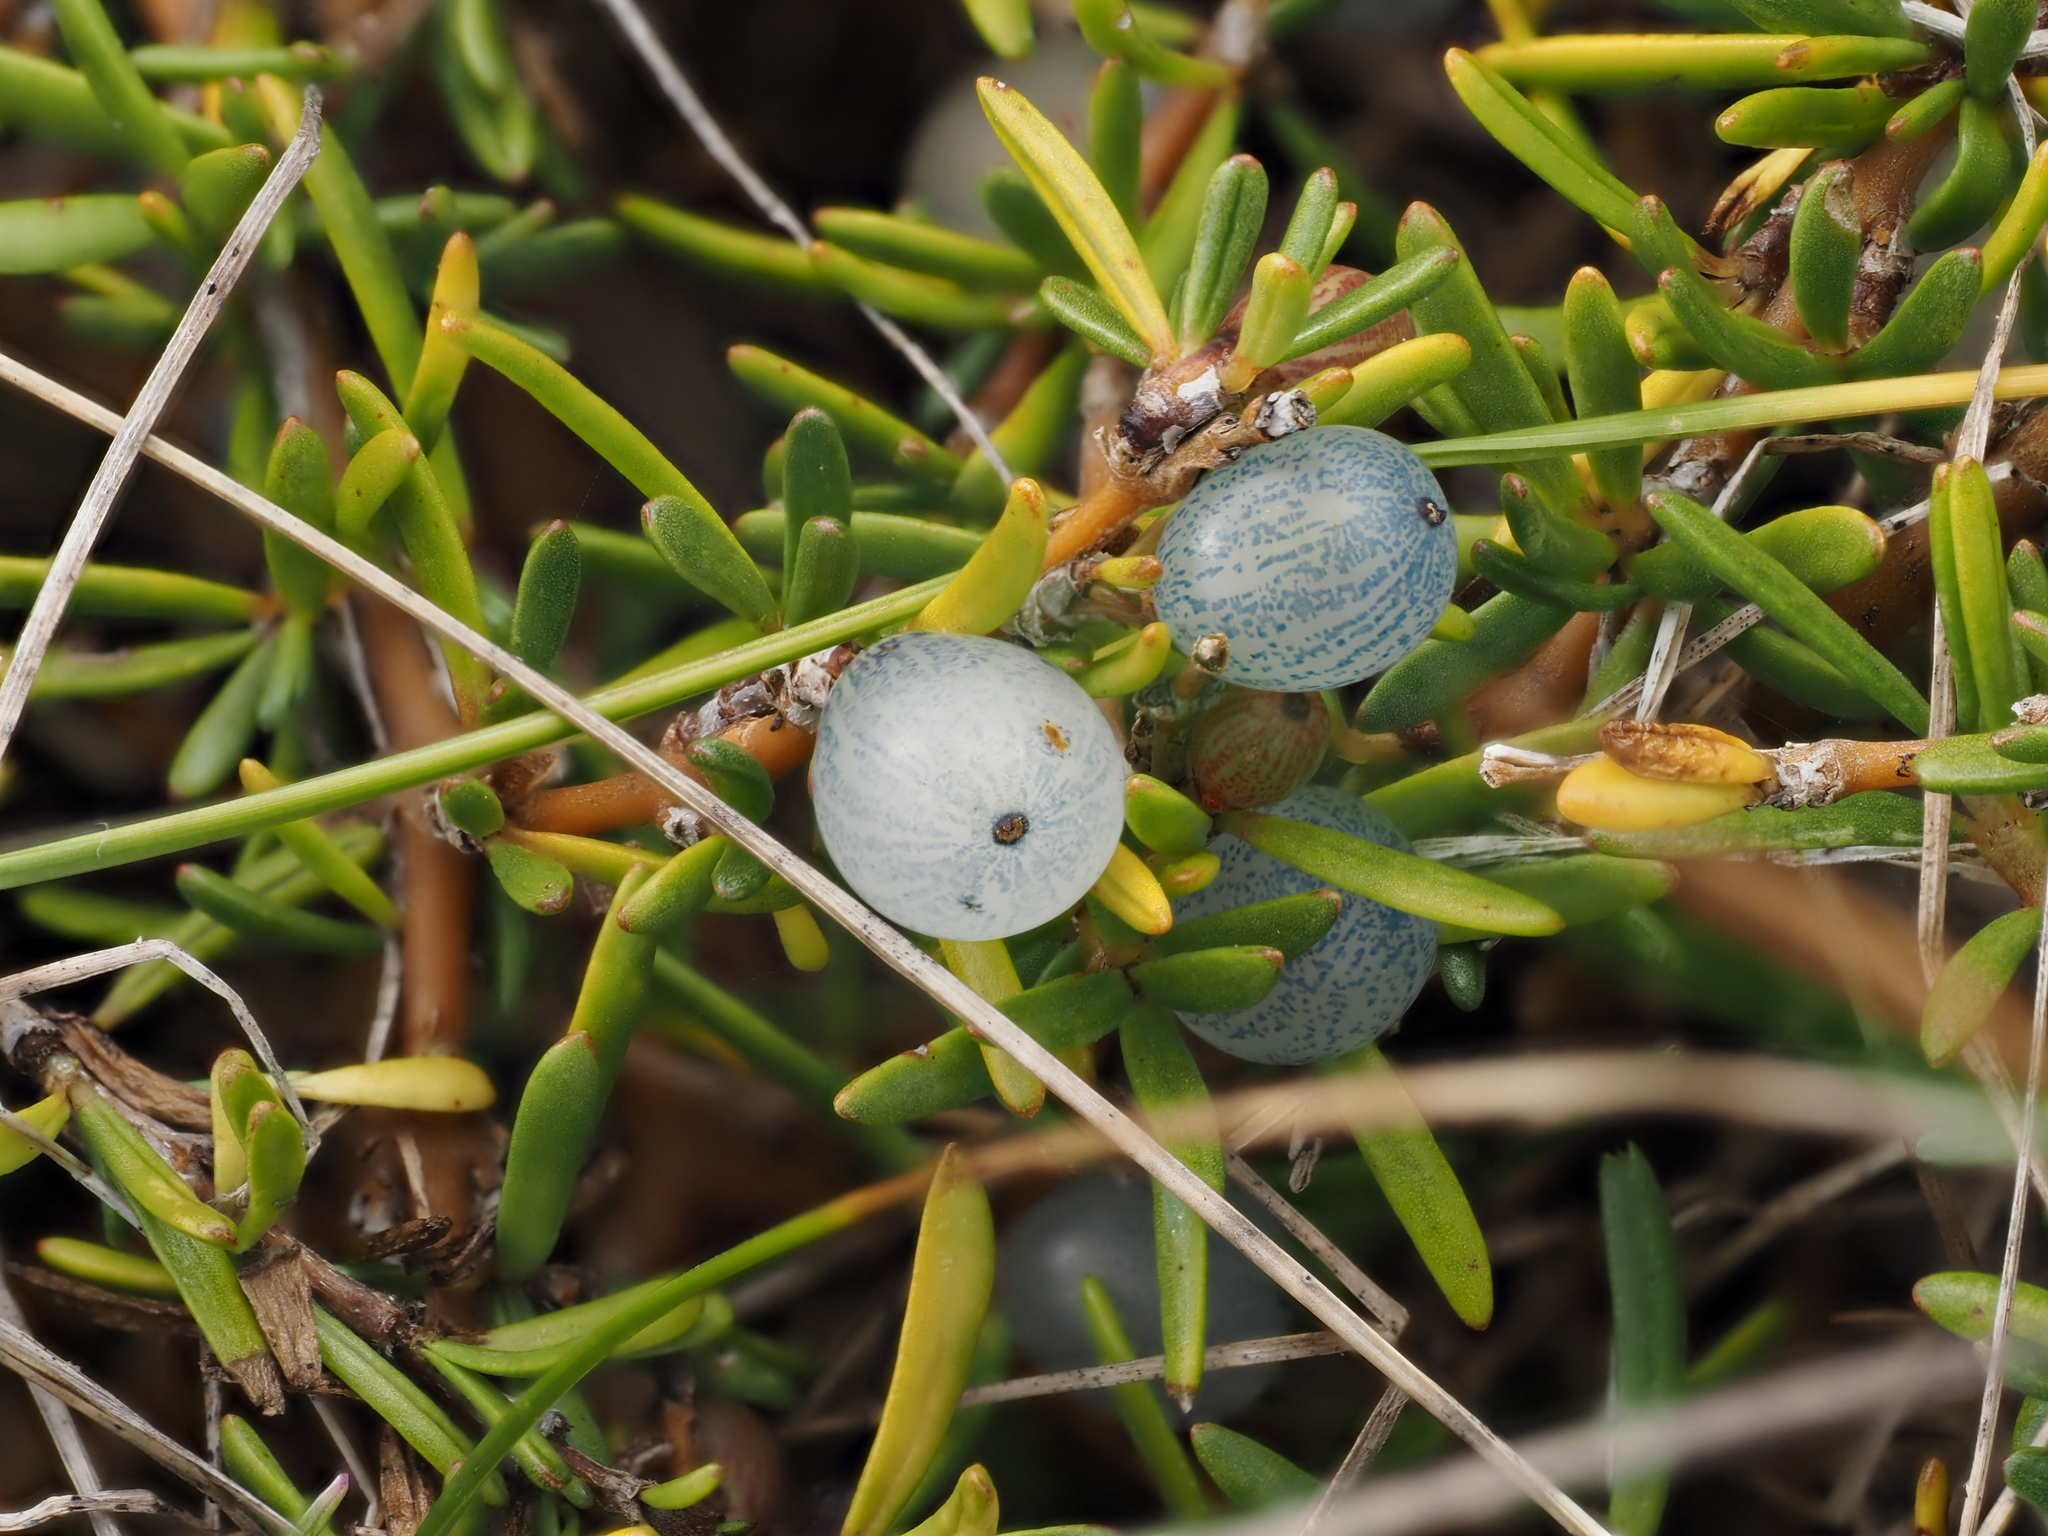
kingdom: Plantae
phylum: Tracheophyta
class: Magnoliopsida
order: Gentianales
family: Rubiaceae
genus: Coprosma
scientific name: Coprosma acerosa
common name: Sand coprosma
